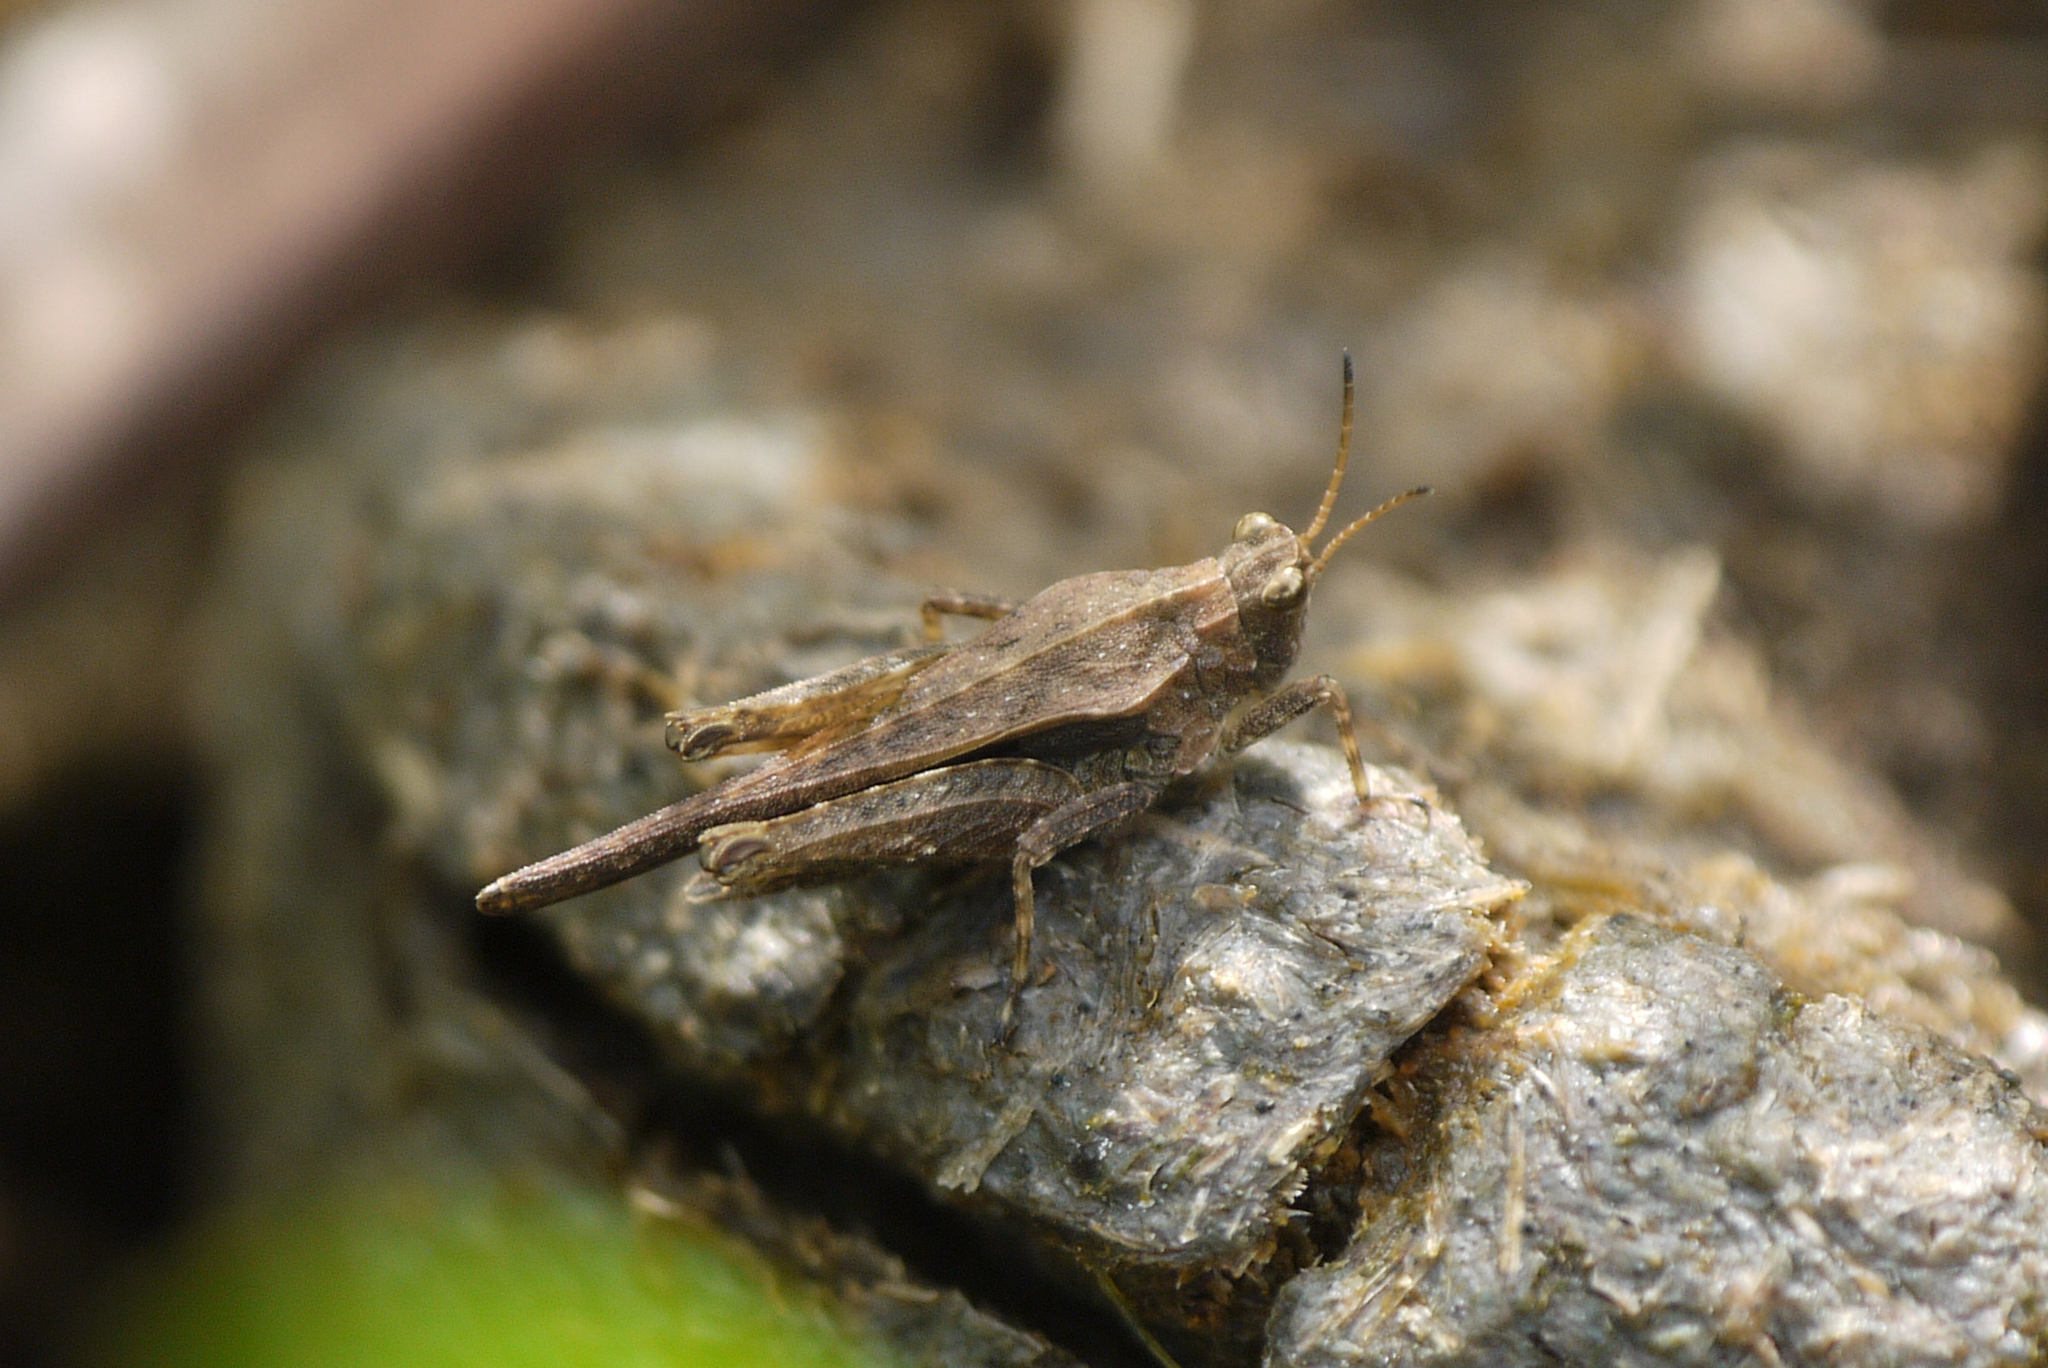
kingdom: Animalia
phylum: Arthropoda
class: Insecta
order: Orthoptera
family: Tetrigidae
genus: Tetrix
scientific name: Tetrix subulata
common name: Slender ground-hopper
